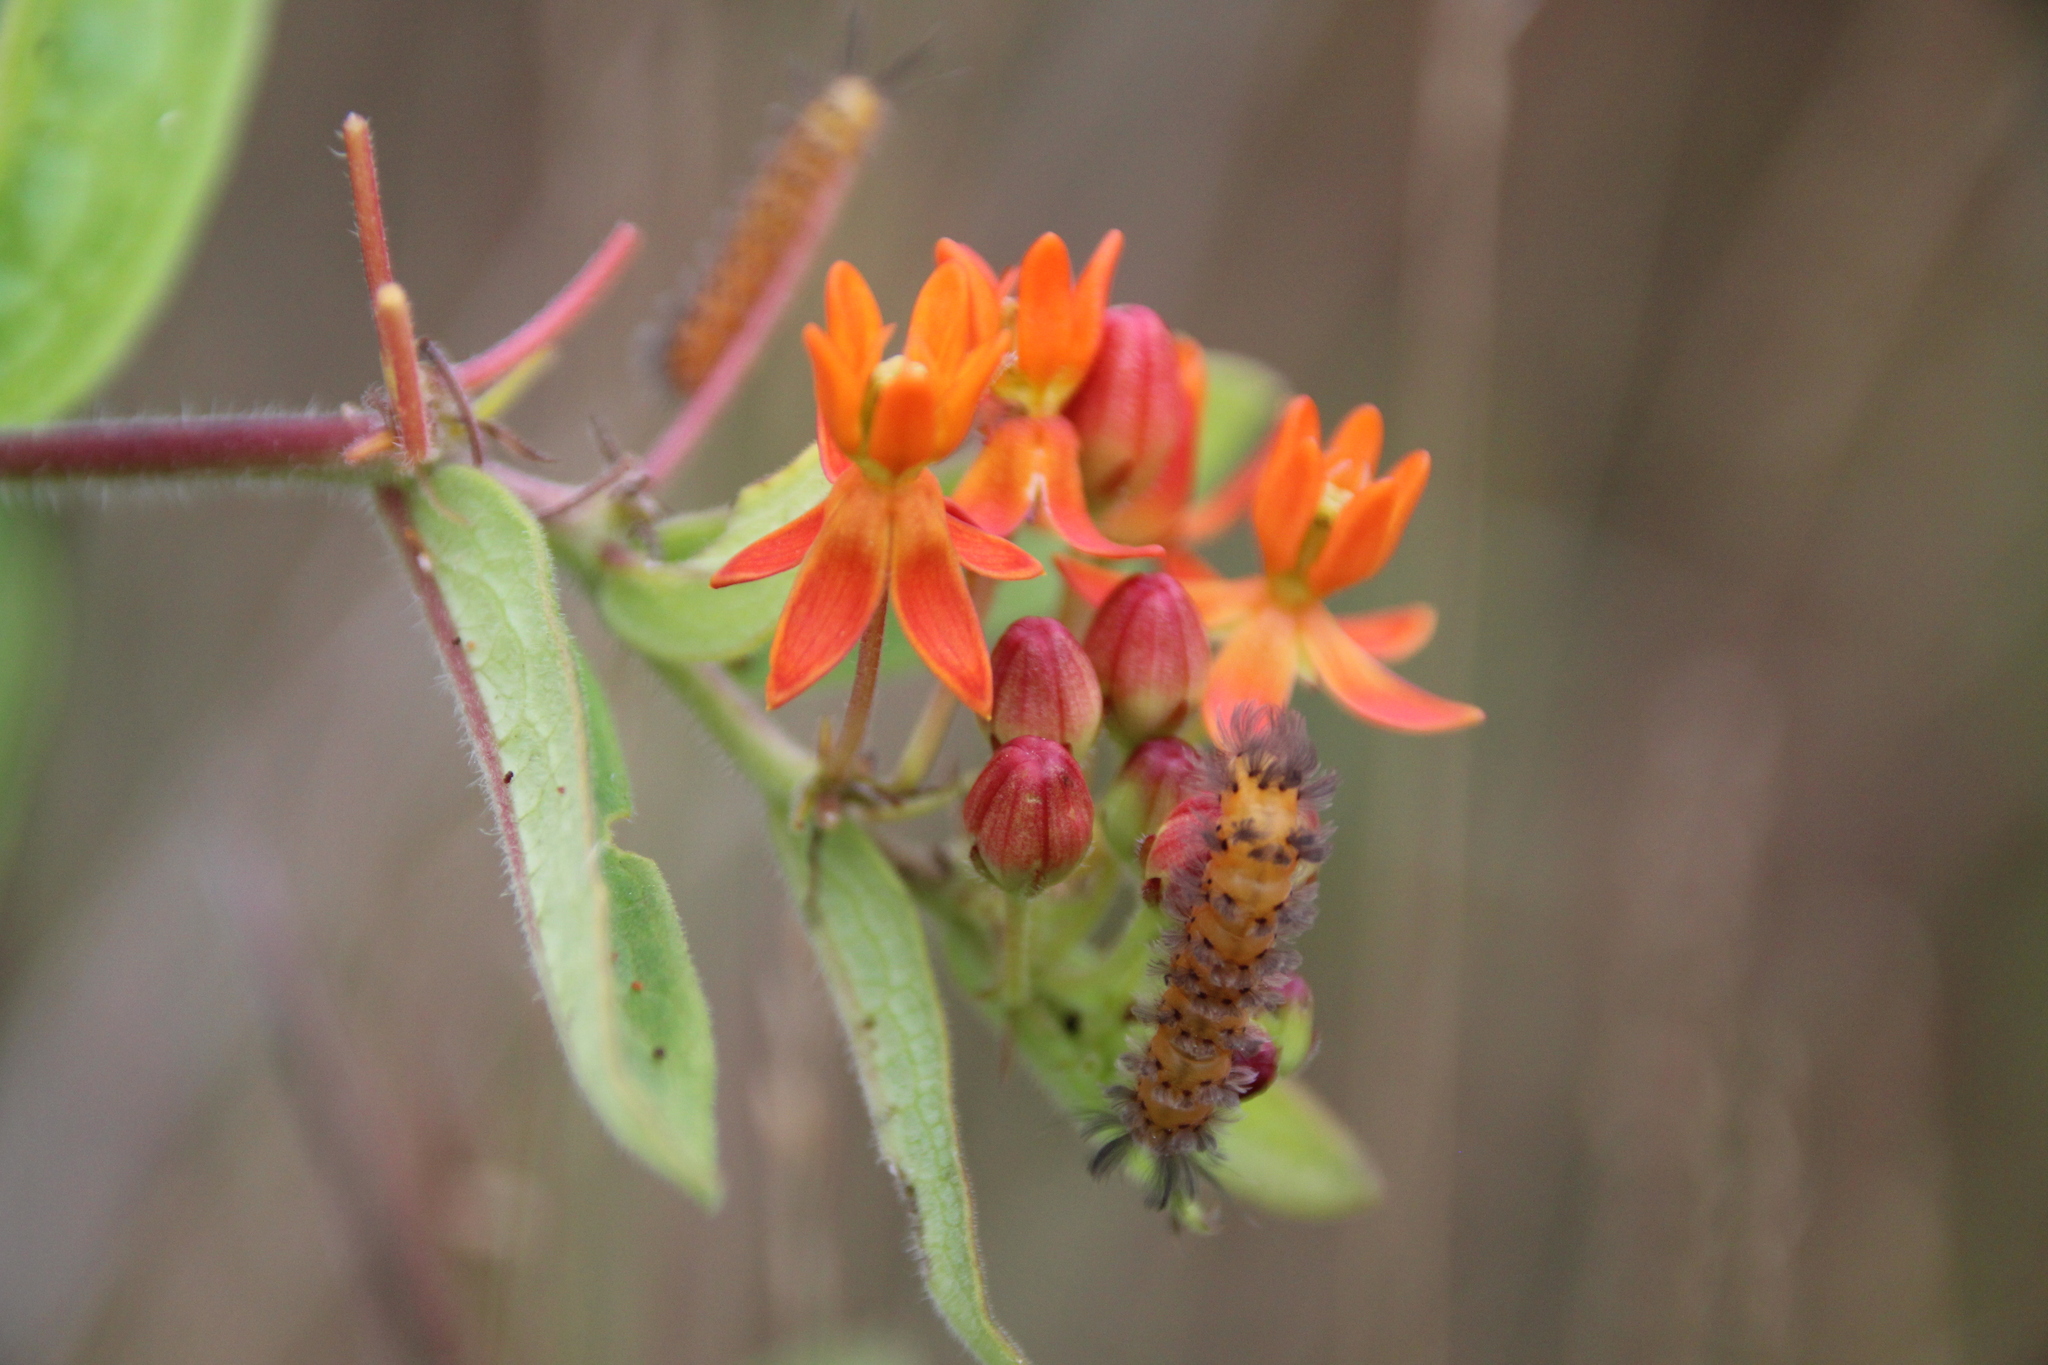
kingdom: Animalia
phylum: Arthropoda
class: Insecta
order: Lepidoptera
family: Erebidae
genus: Cycnia
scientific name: Cycnia collaris
